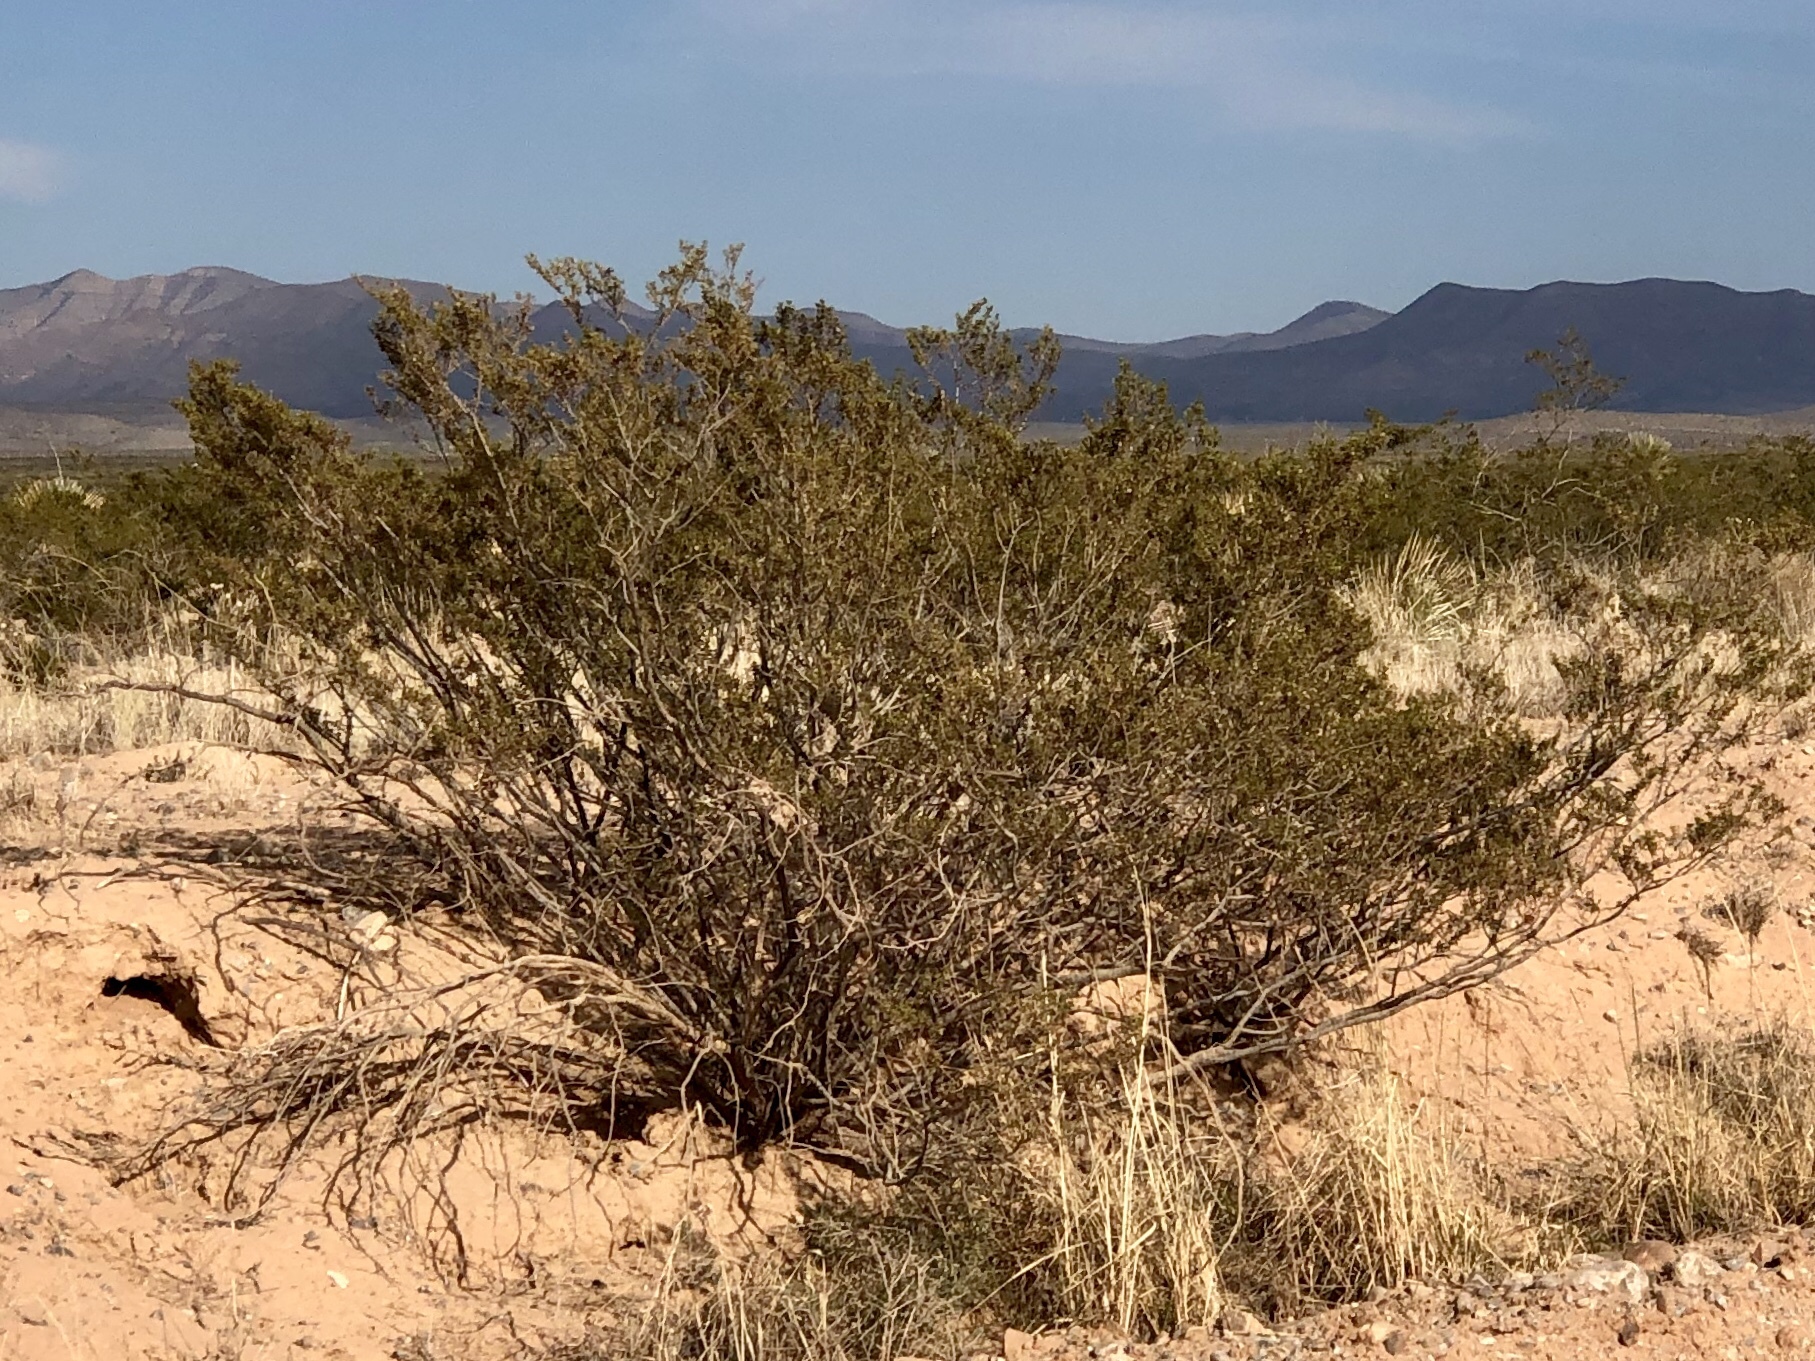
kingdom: Plantae
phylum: Tracheophyta
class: Magnoliopsida
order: Zygophyllales
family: Zygophyllaceae
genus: Larrea
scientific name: Larrea tridentata
